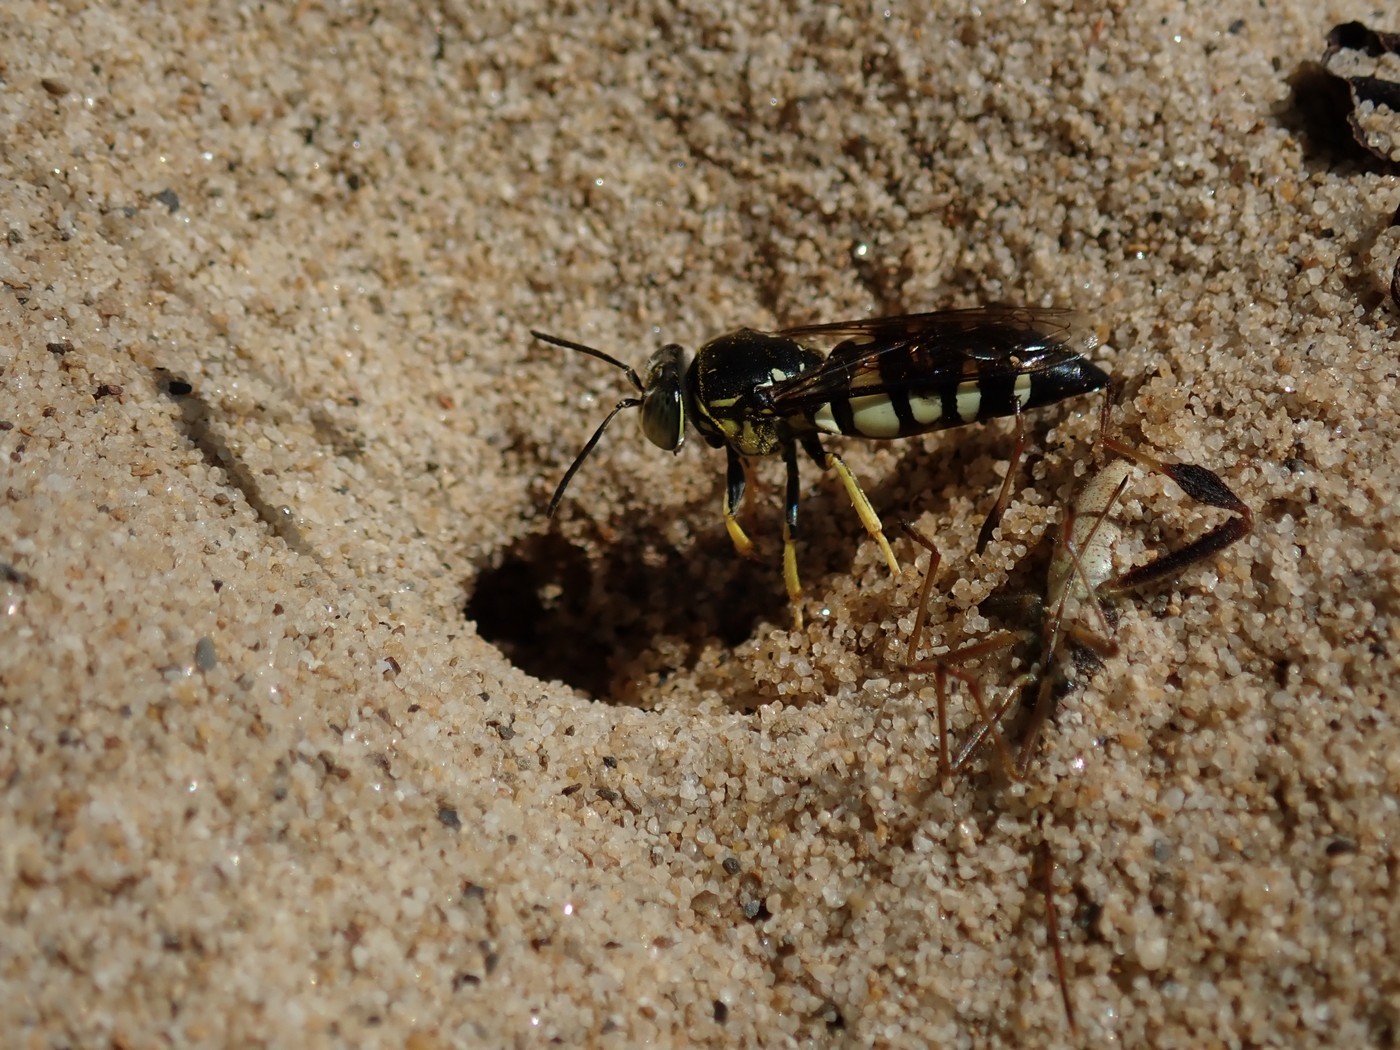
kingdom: Animalia
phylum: Arthropoda
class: Insecta
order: Hymenoptera
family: Crabronidae
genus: Bicyrtes
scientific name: Bicyrtes quadrifasciatus
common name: Four-banded stink bug hunter wasp
